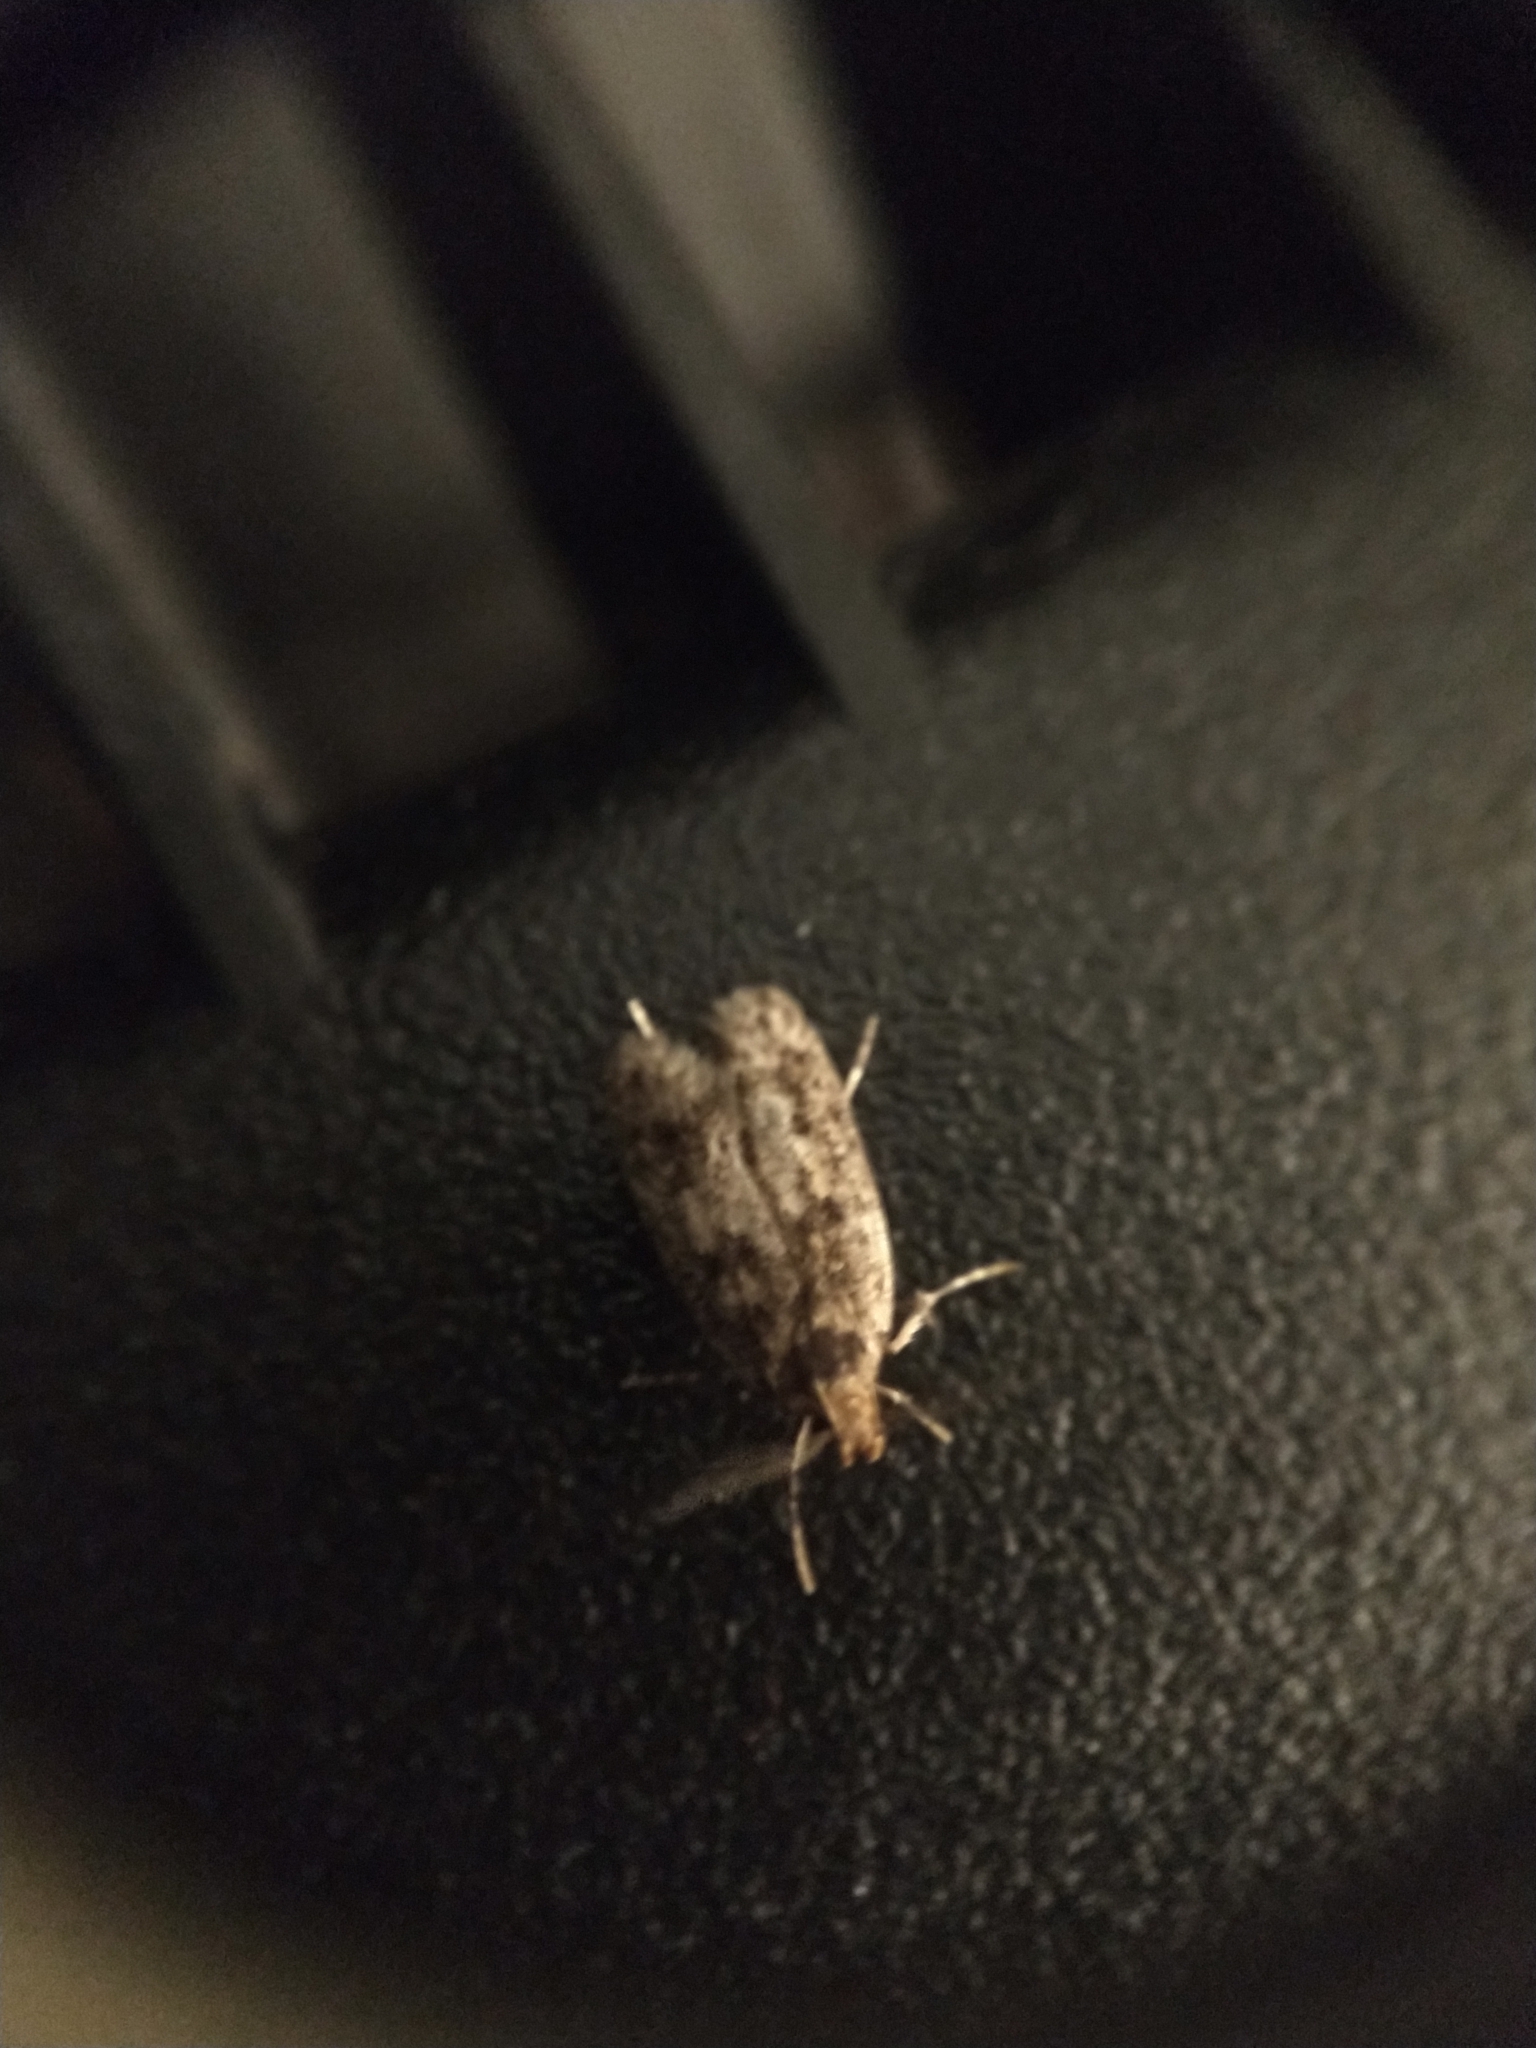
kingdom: Animalia
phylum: Arthropoda
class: Insecta
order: Lepidoptera
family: Oecophoridae
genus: Hofmannophila
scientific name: Hofmannophila pseudospretella
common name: Brown house moth
